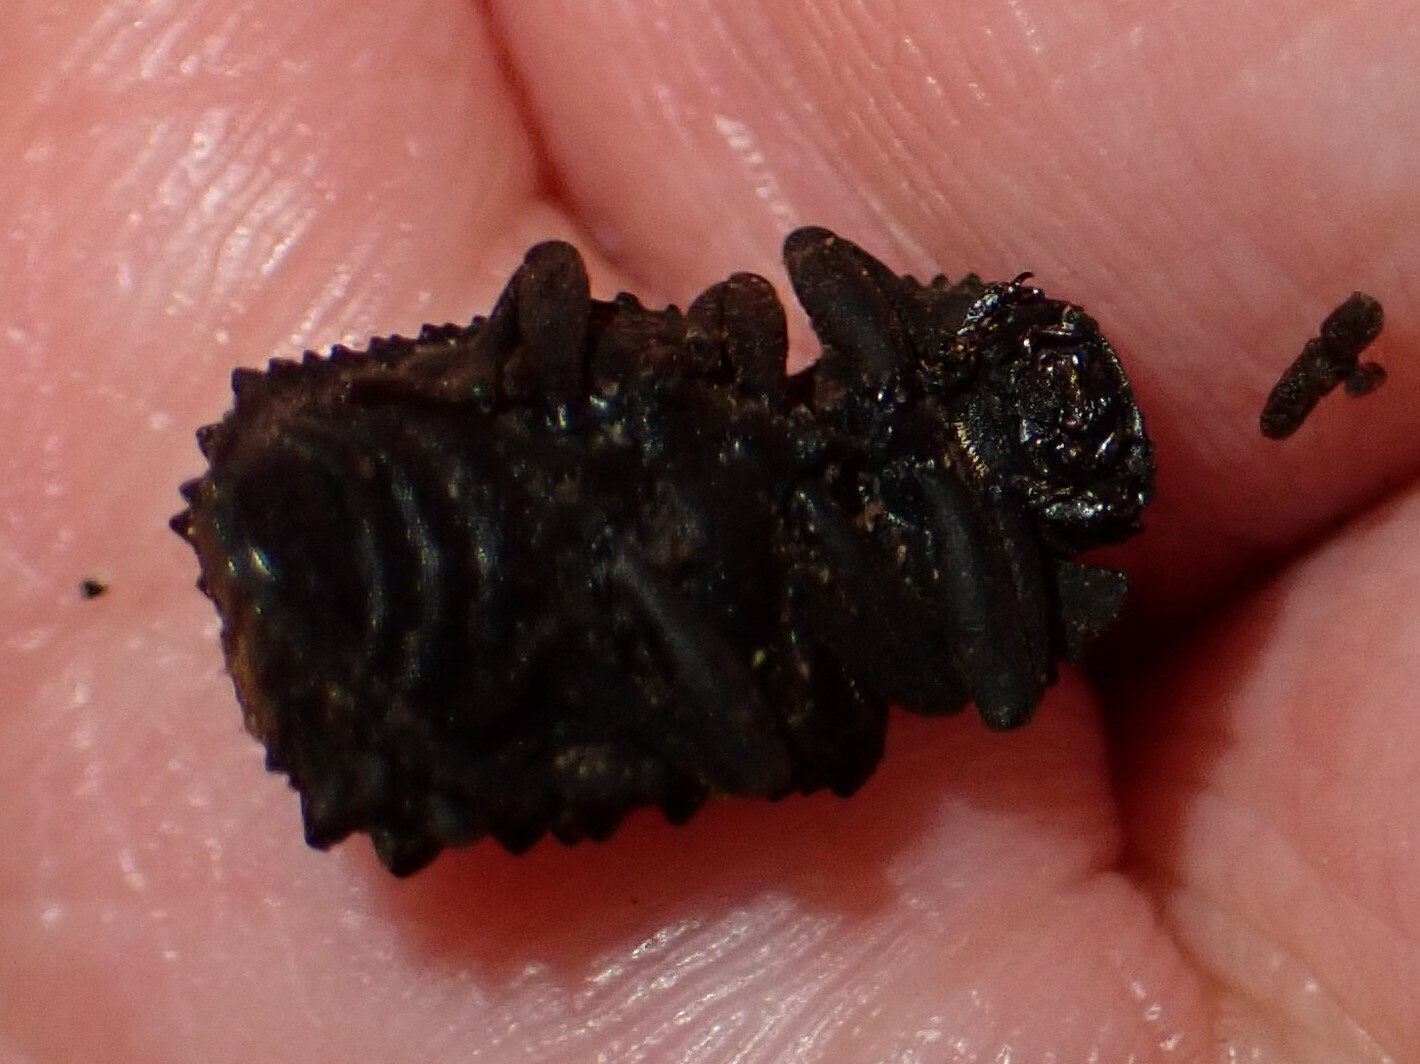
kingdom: Animalia
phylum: Arthropoda
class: Insecta
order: Coleoptera
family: Tenebrionidae
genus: Gnatocerus
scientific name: Gnatocerus cornutus
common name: Broad-horned flour beetle
